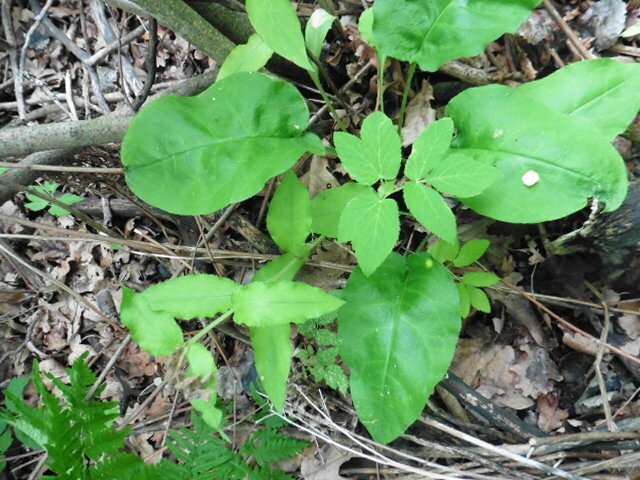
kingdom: Plantae
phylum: Tracheophyta
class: Magnoliopsida
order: Boraginales
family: Boraginaceae
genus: Pulmonaria
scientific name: Pulmonaria obscura
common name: Suffolk lungwort
